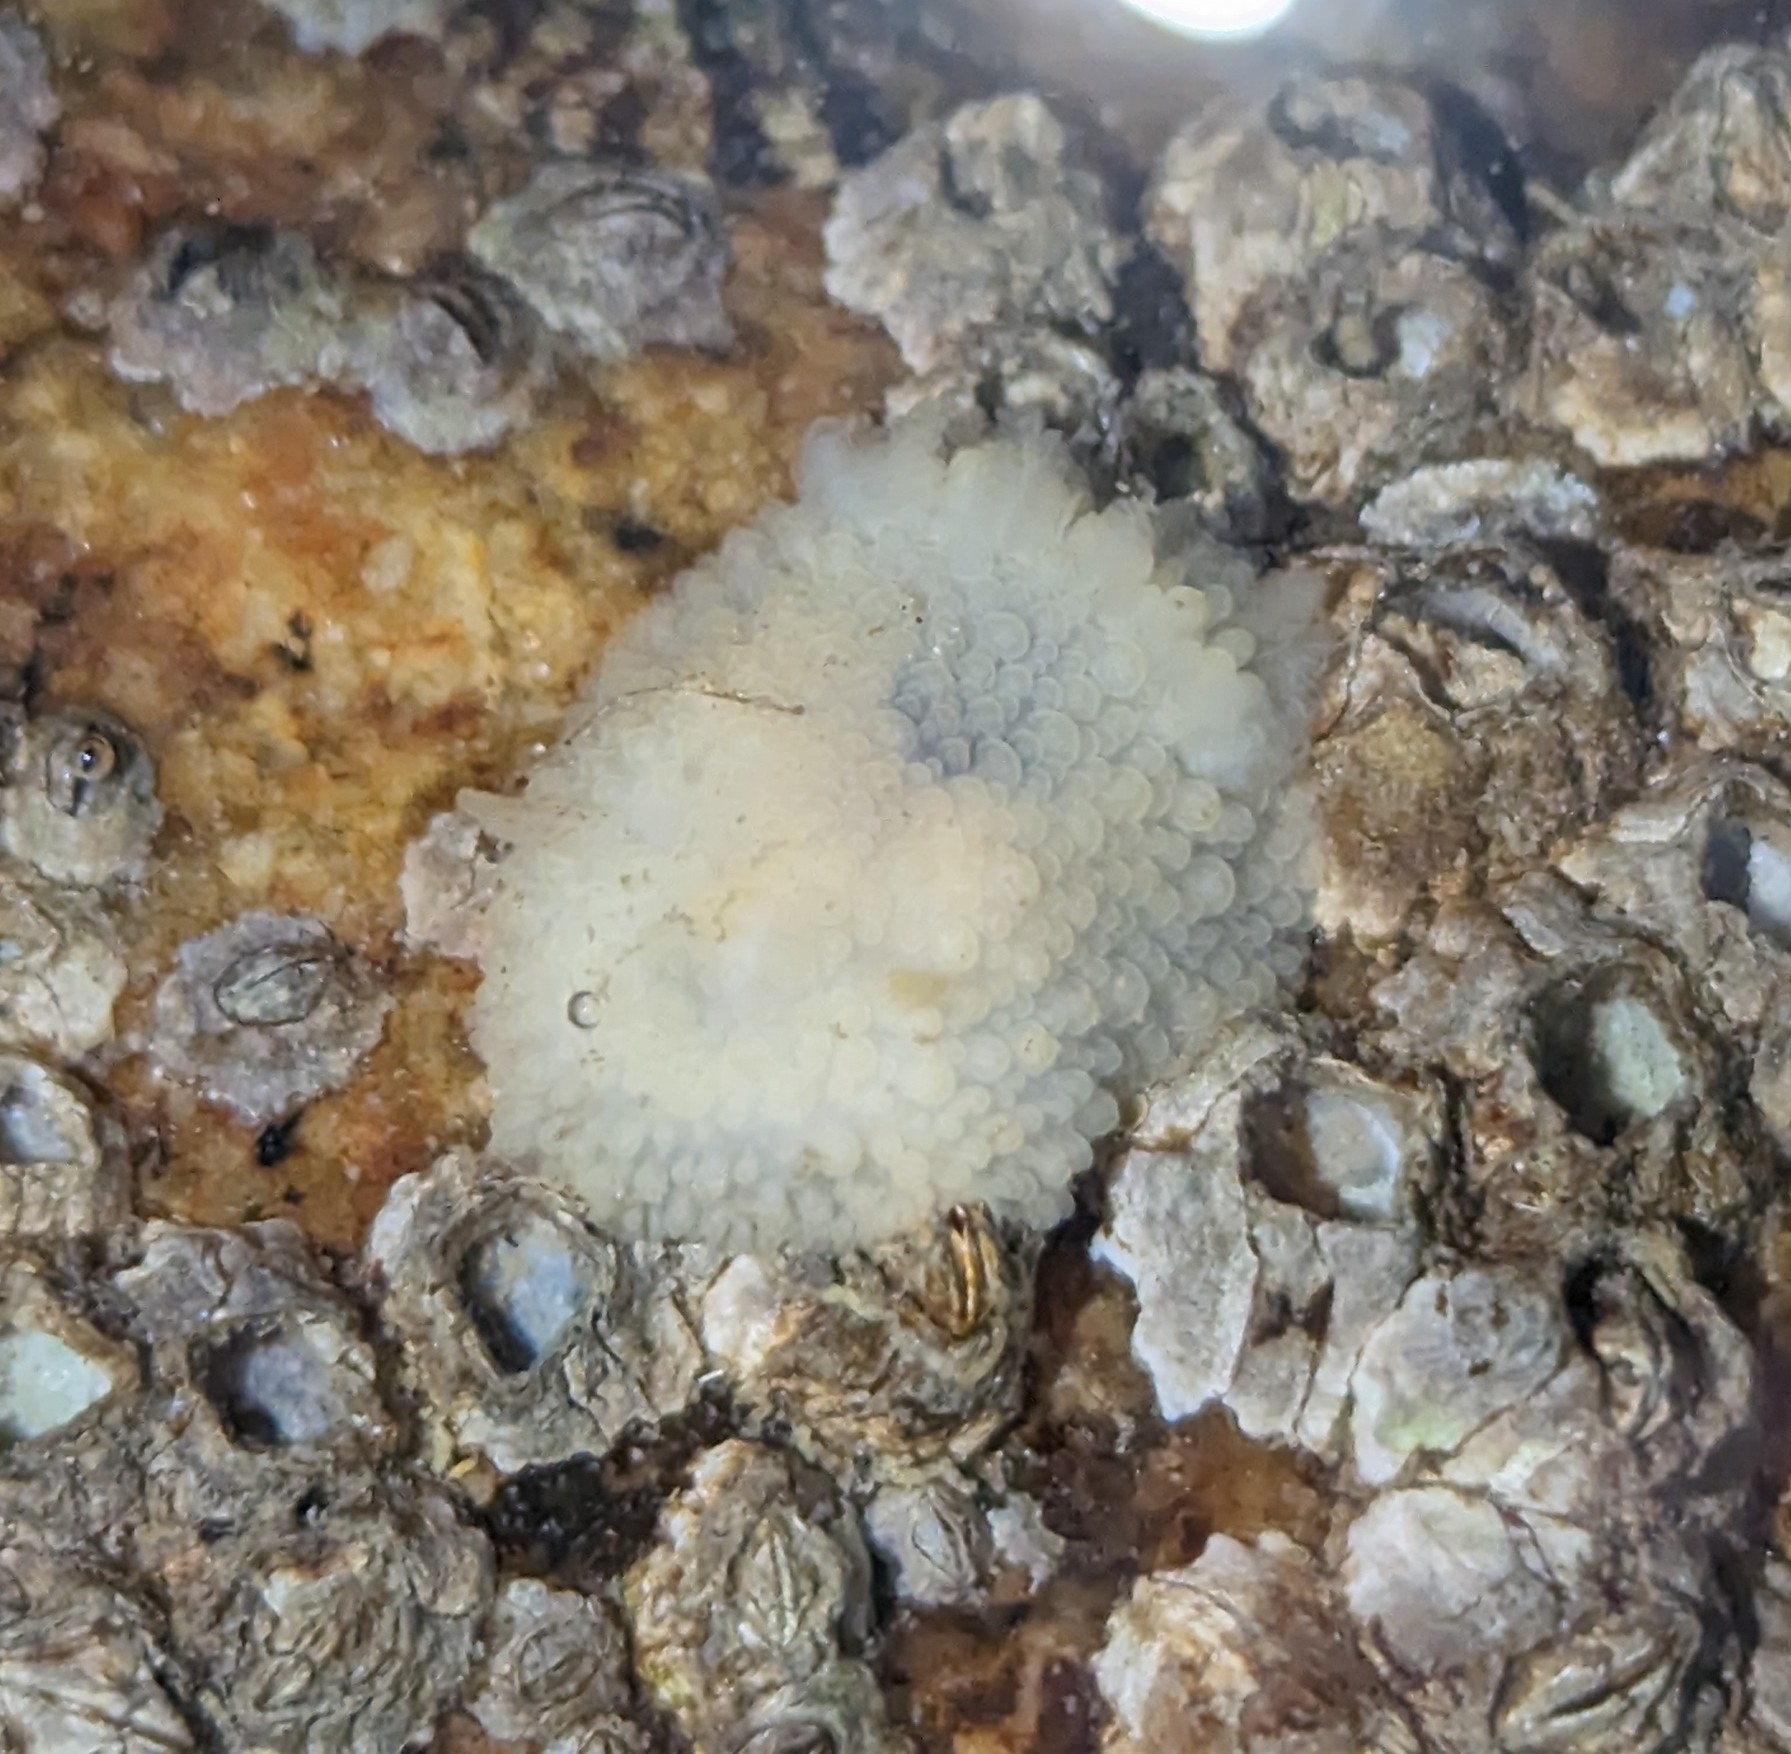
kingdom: Animalia
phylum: Mollusca
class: Gastropoda
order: Nudibranchia
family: Onchidorididae
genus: Onchidoris
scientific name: Onchidoris bilamellata
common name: Barnacle-eating onchidoris
